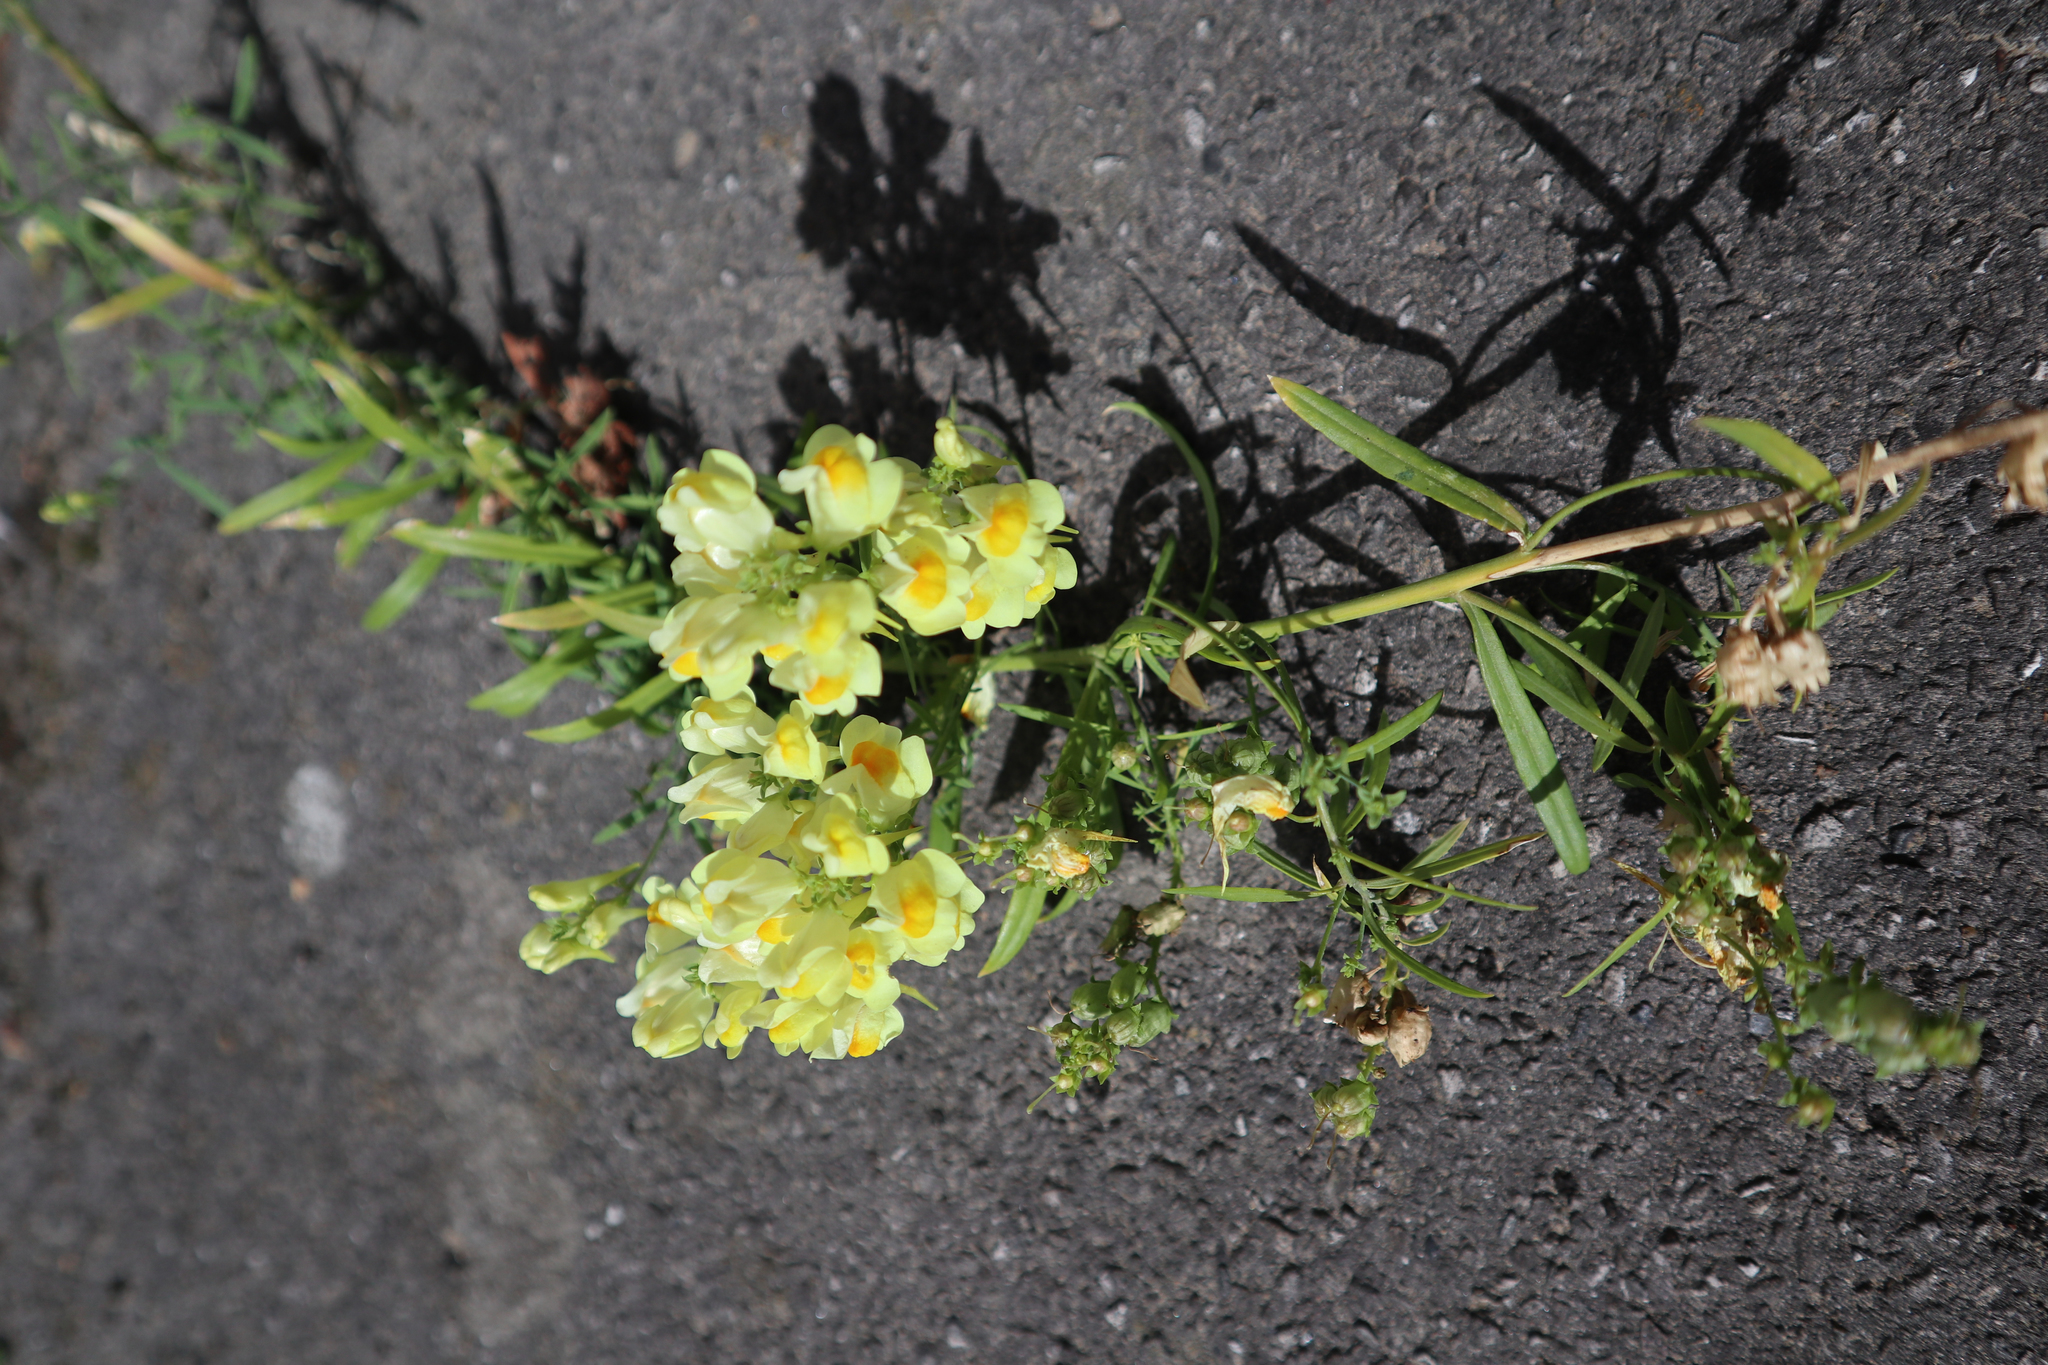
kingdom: Plantae
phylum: Tracheophyta
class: Magnoliopsida
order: Lamiales
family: Plantaginaceae
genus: Linaria
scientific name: Linaria vulgaris
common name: Butter and eggs
